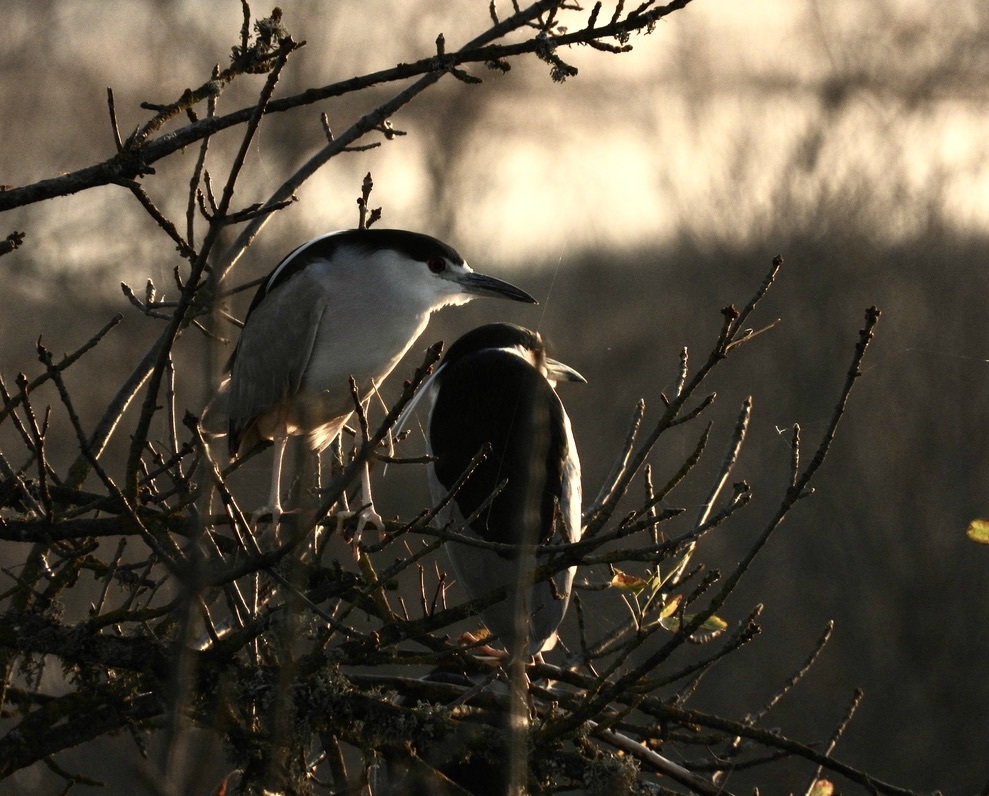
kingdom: Animalia
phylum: Chordata
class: Aves
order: Pelecaniformes
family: Ardeidae
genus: Nycticorax
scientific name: Nycticorax nycticorax
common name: Black-crowned night heron
